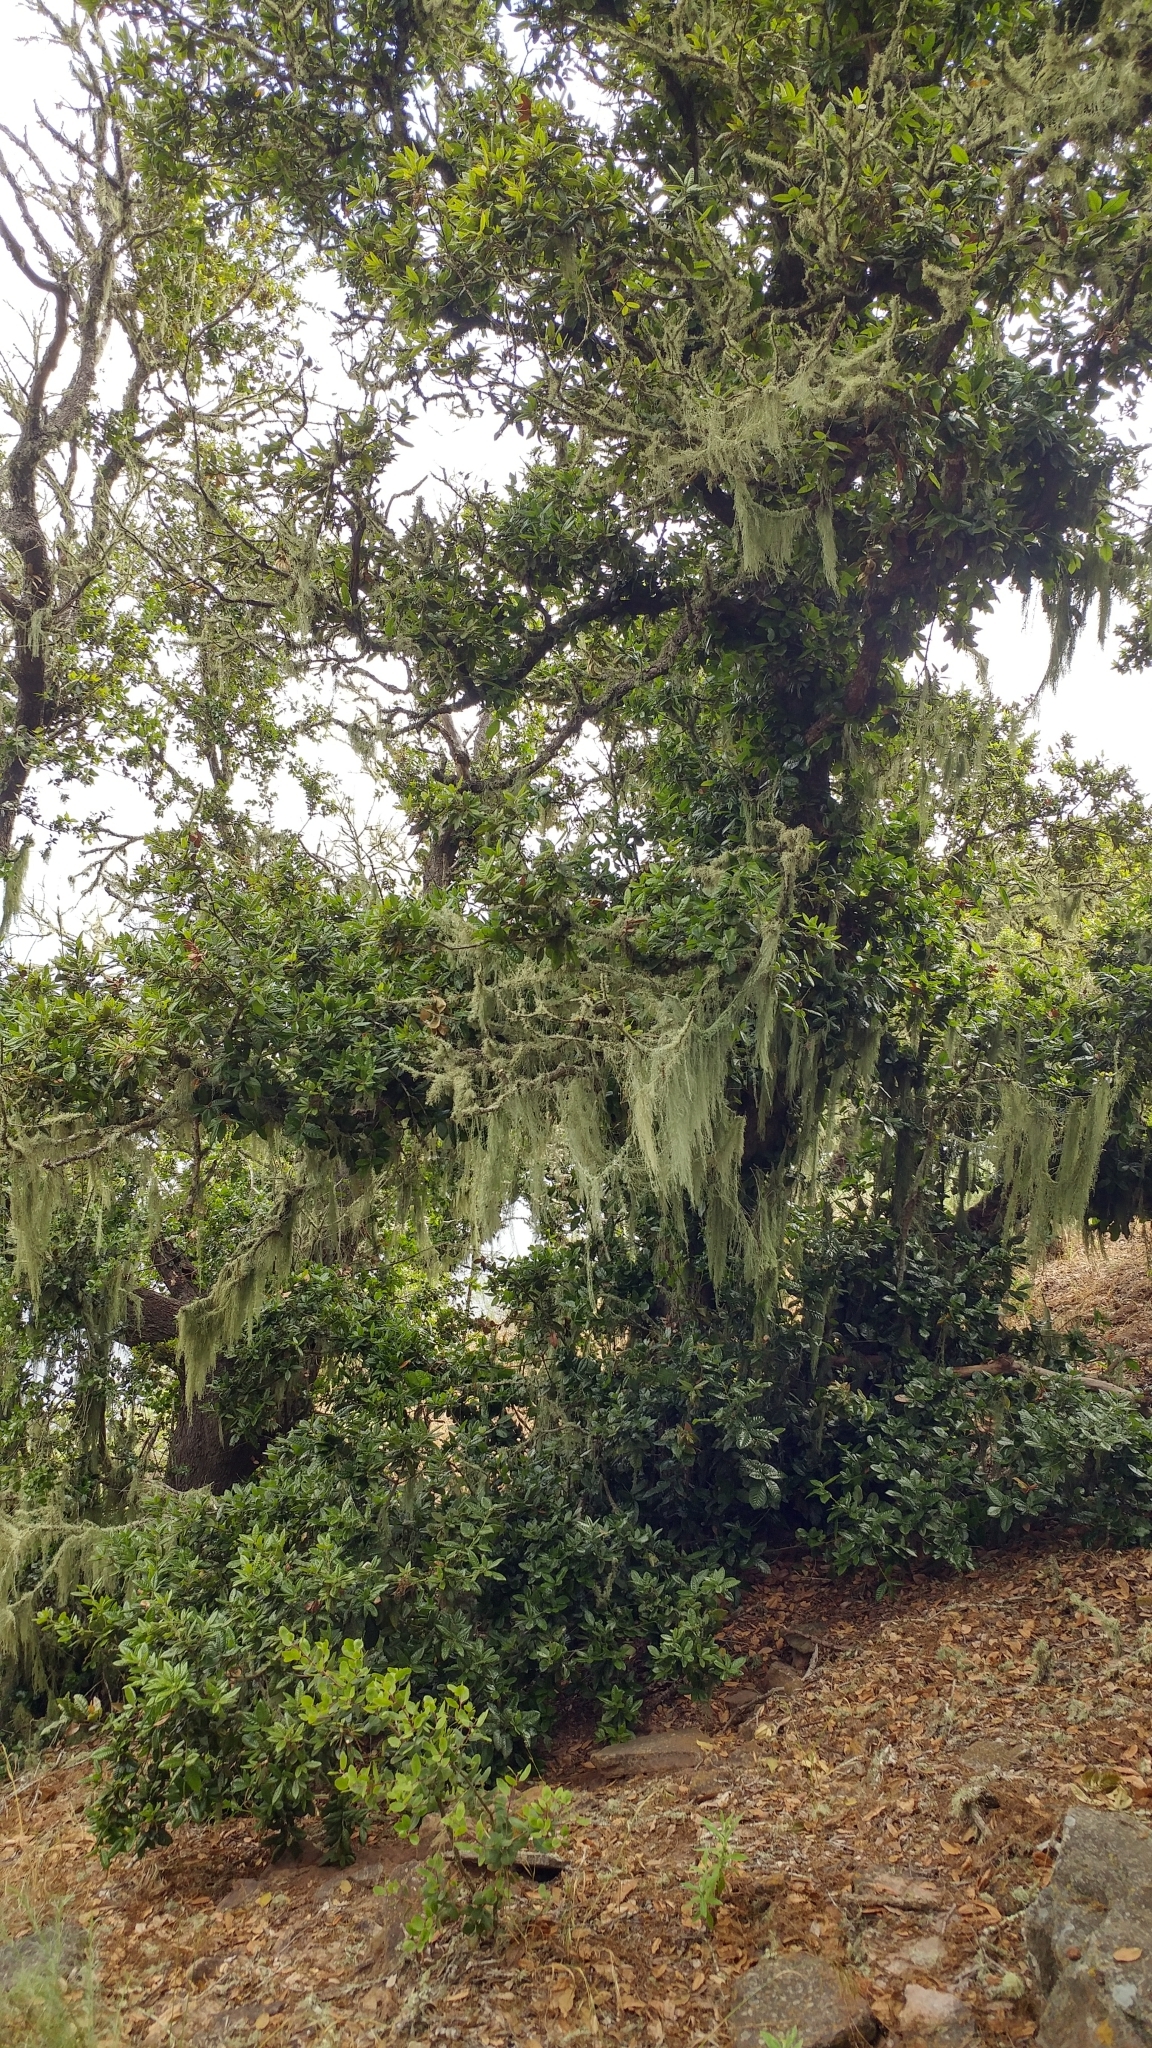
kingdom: Plantae
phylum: Tracheophyta
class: Magnoliopsida
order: Fagales
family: Fagaceae
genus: Quercus
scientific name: Quercus tomentella
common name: Island oak
